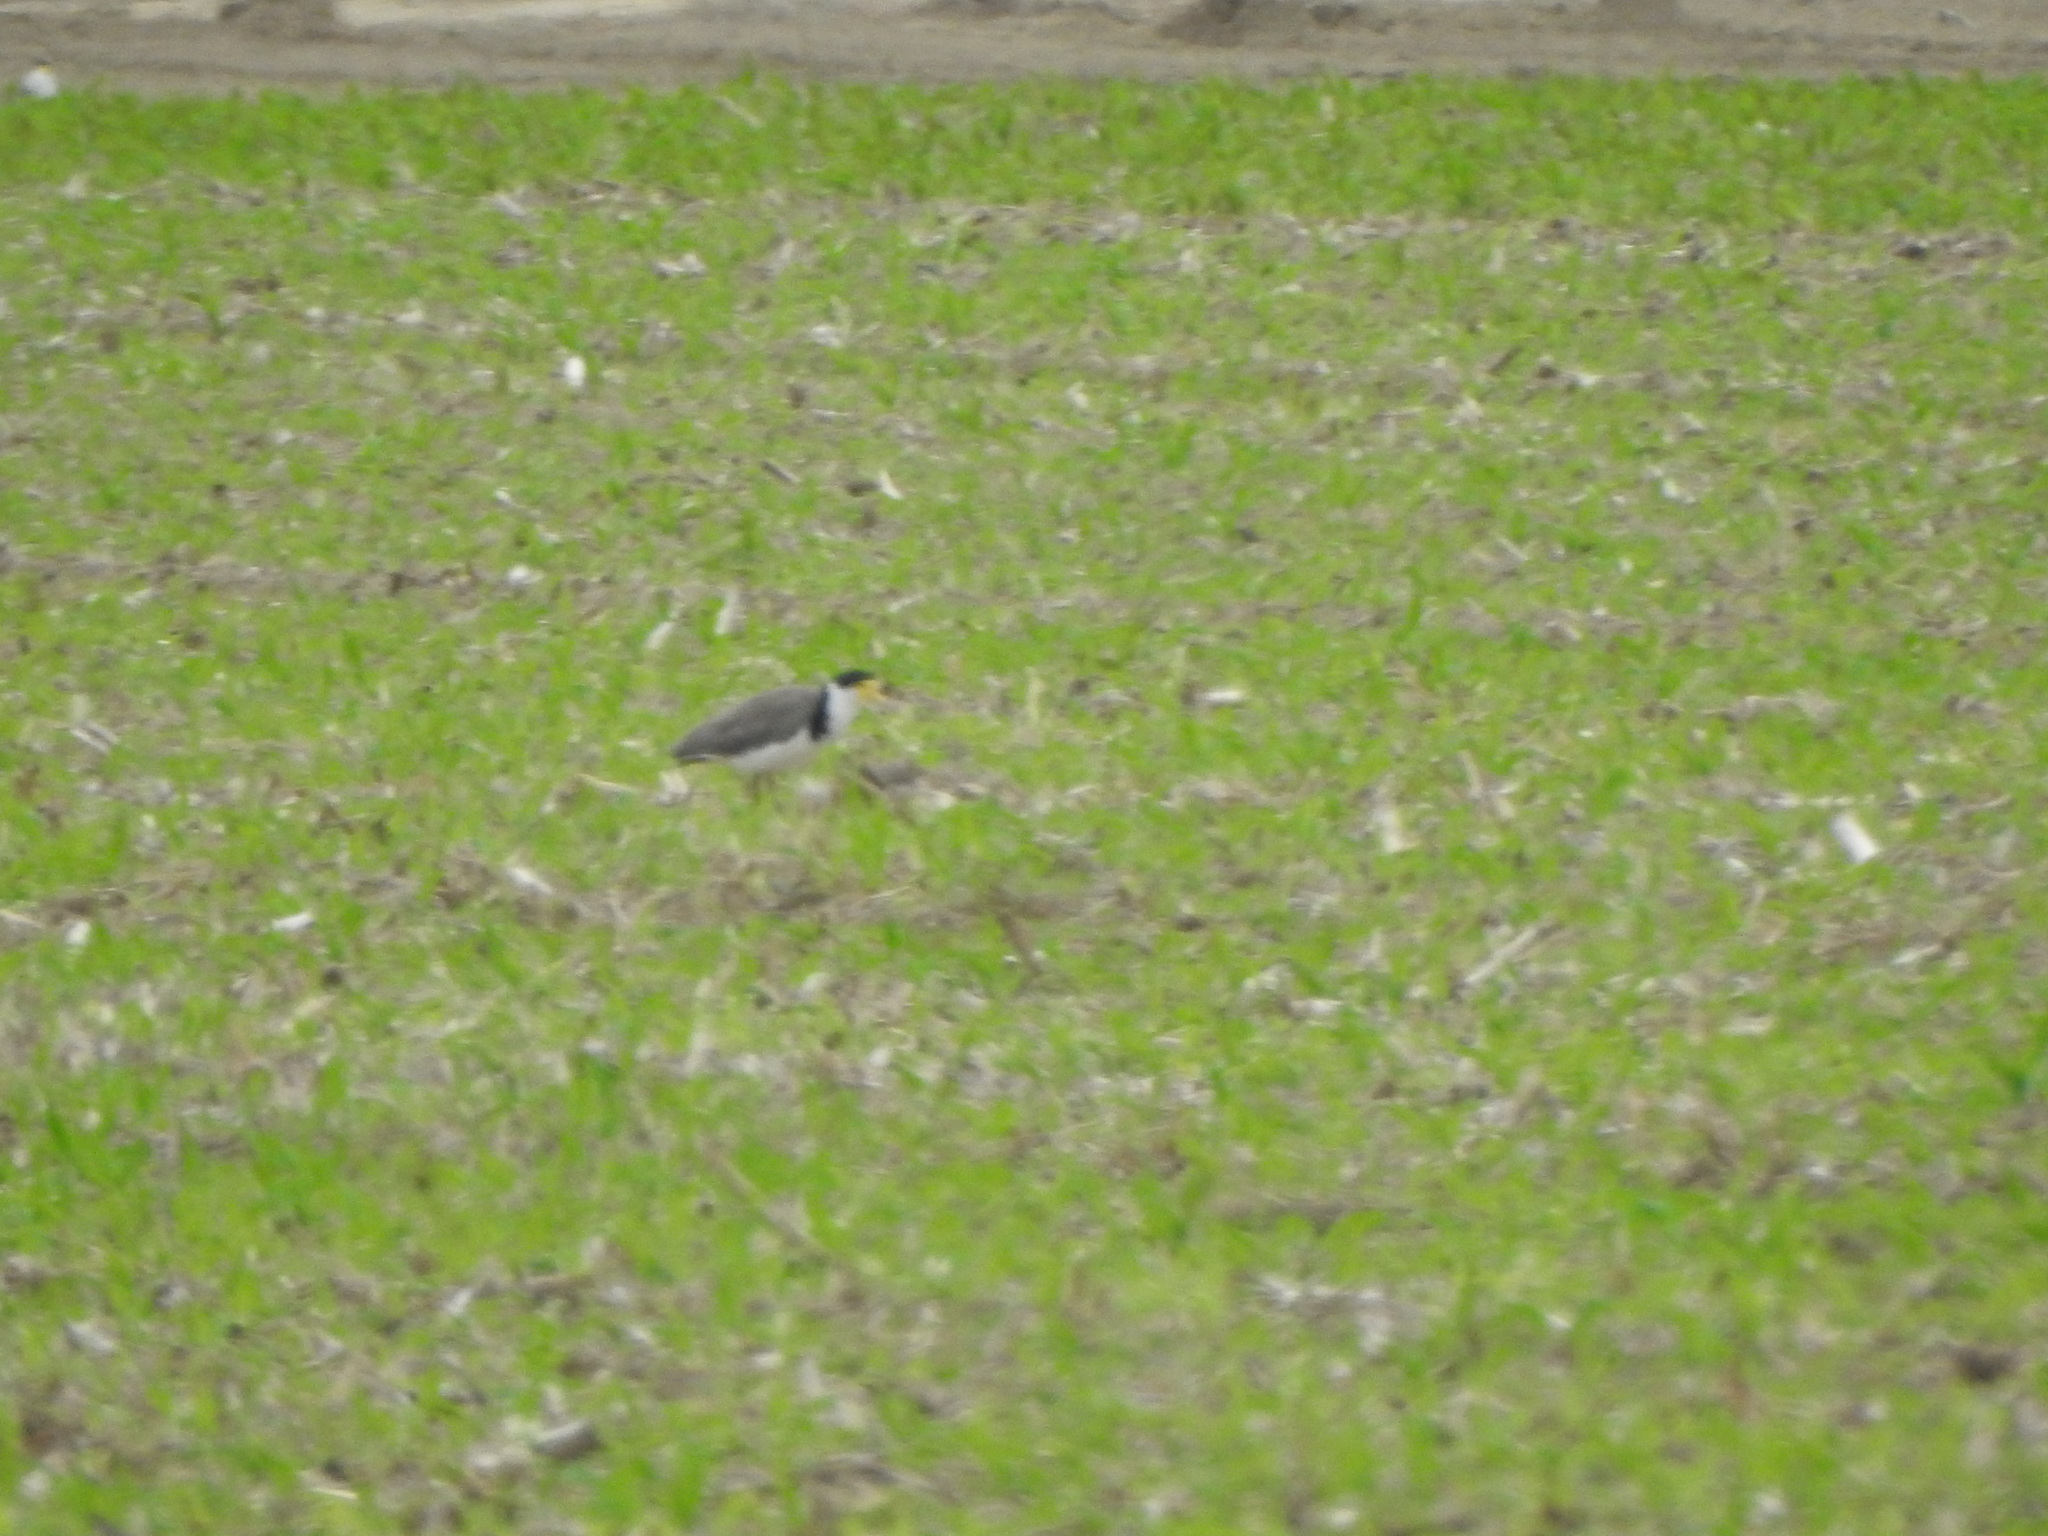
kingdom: Animalia
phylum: Chordata
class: Aves
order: Charadriiformes
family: Charadriidae
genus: Vanellus
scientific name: Vanellus miles
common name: Masked lapwing
